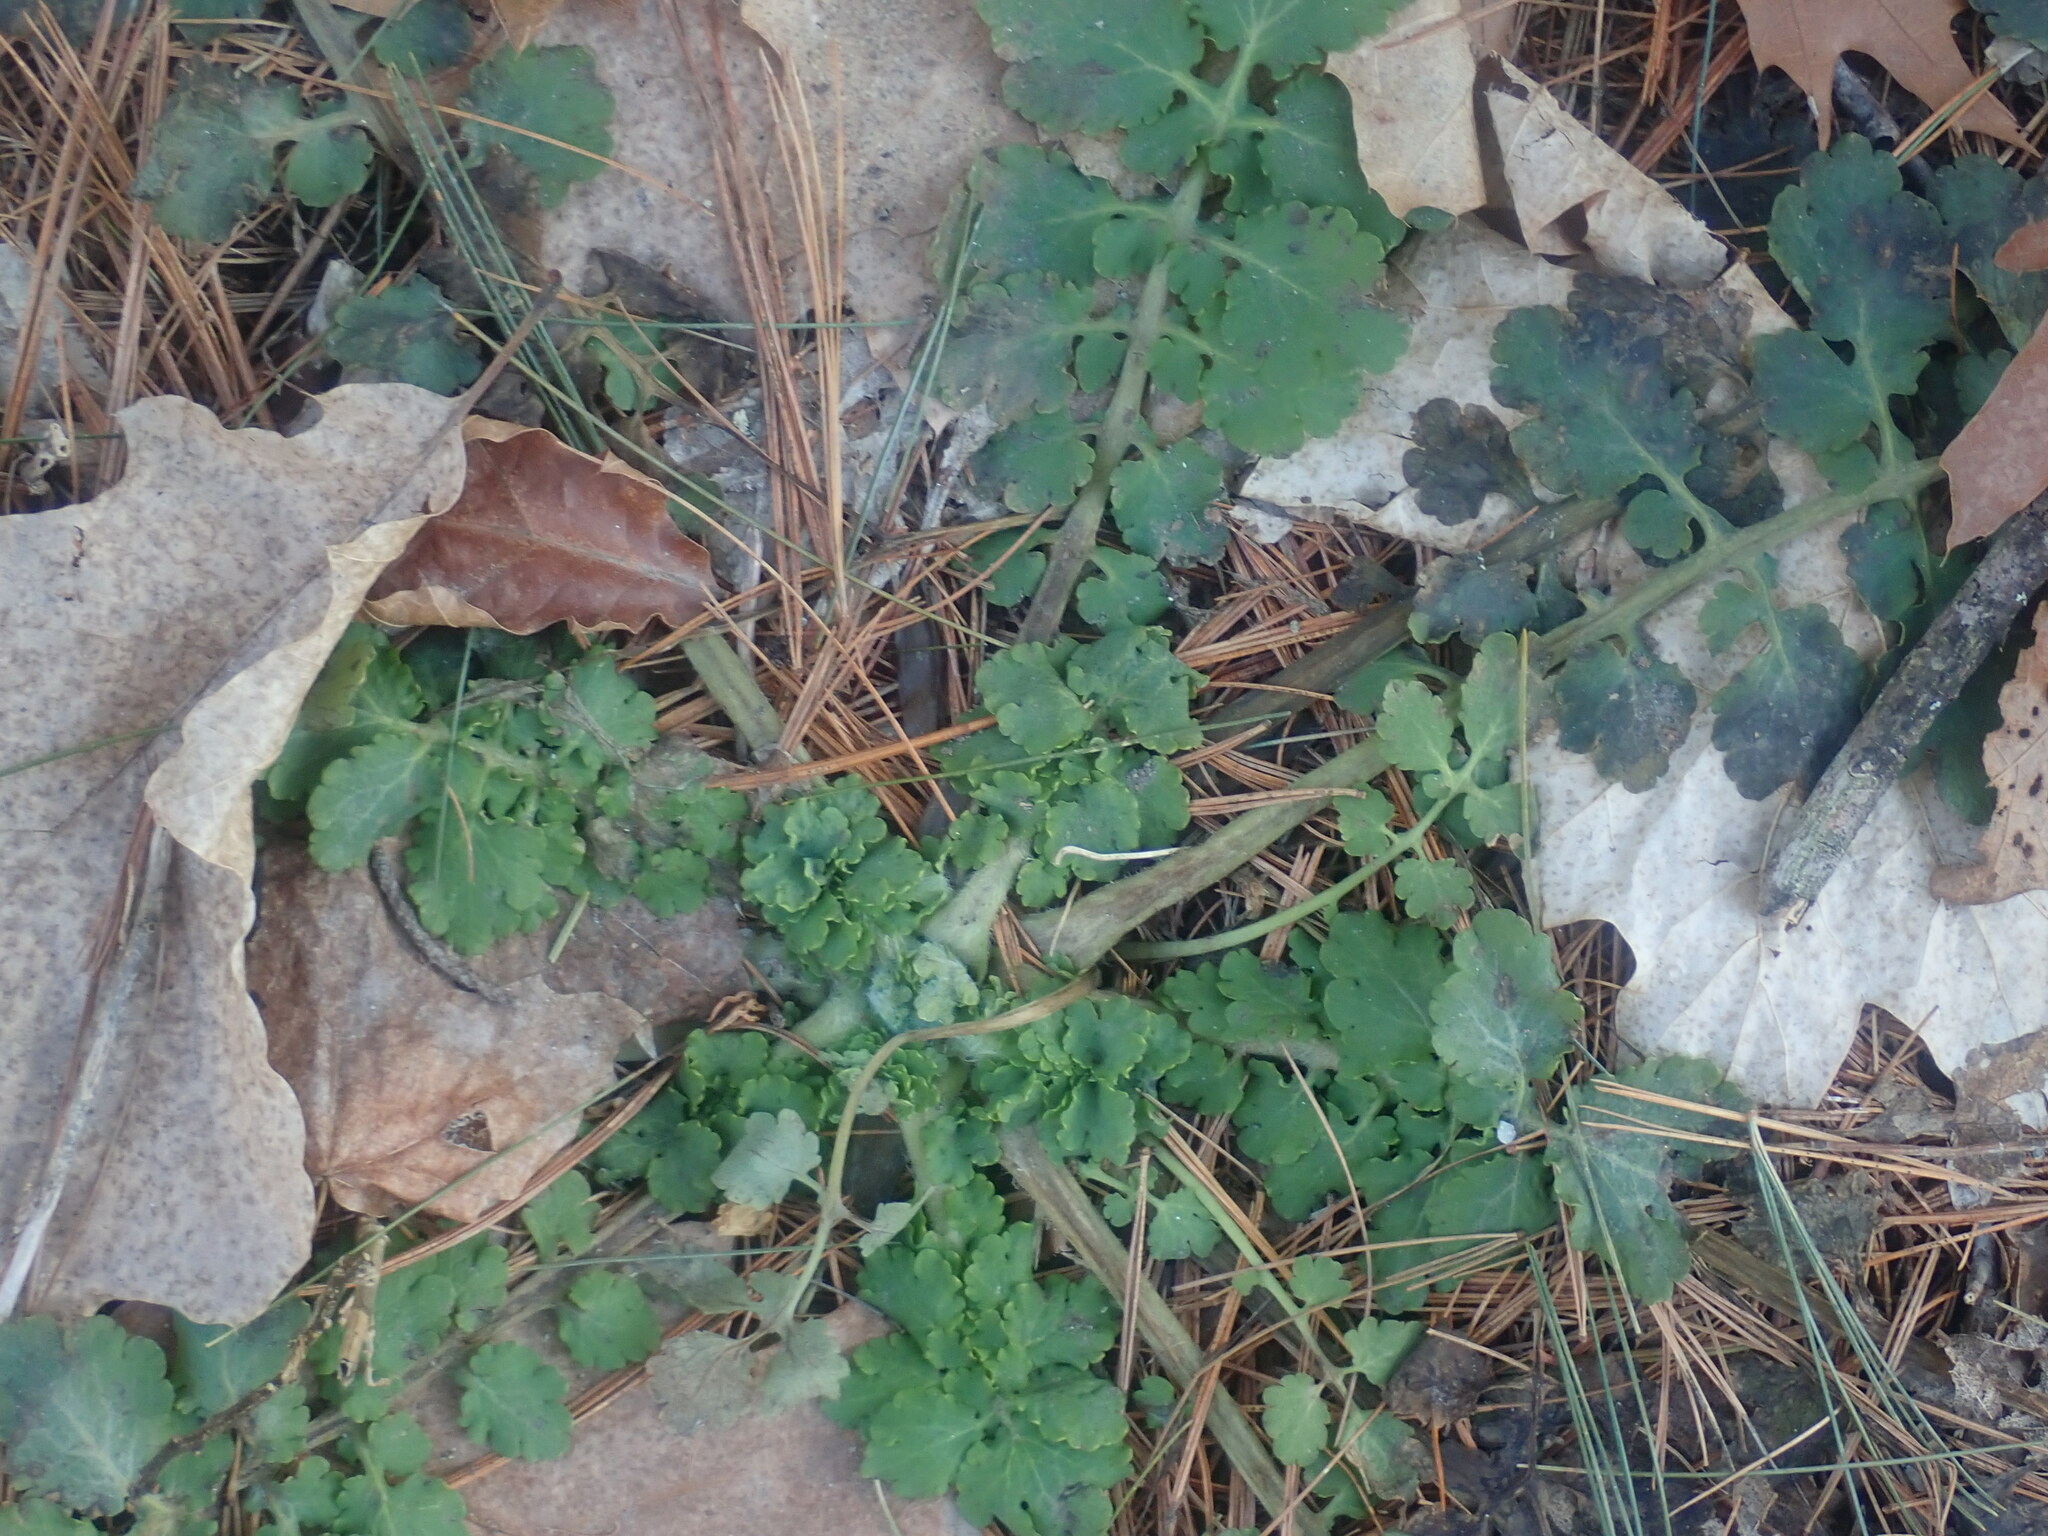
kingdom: Plantae
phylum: Tracheophyta
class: Magnoliopsida
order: Ranunculales
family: Papaveraceae
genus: Chelidonium
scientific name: Chelidonium majus
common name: Greater celandine
